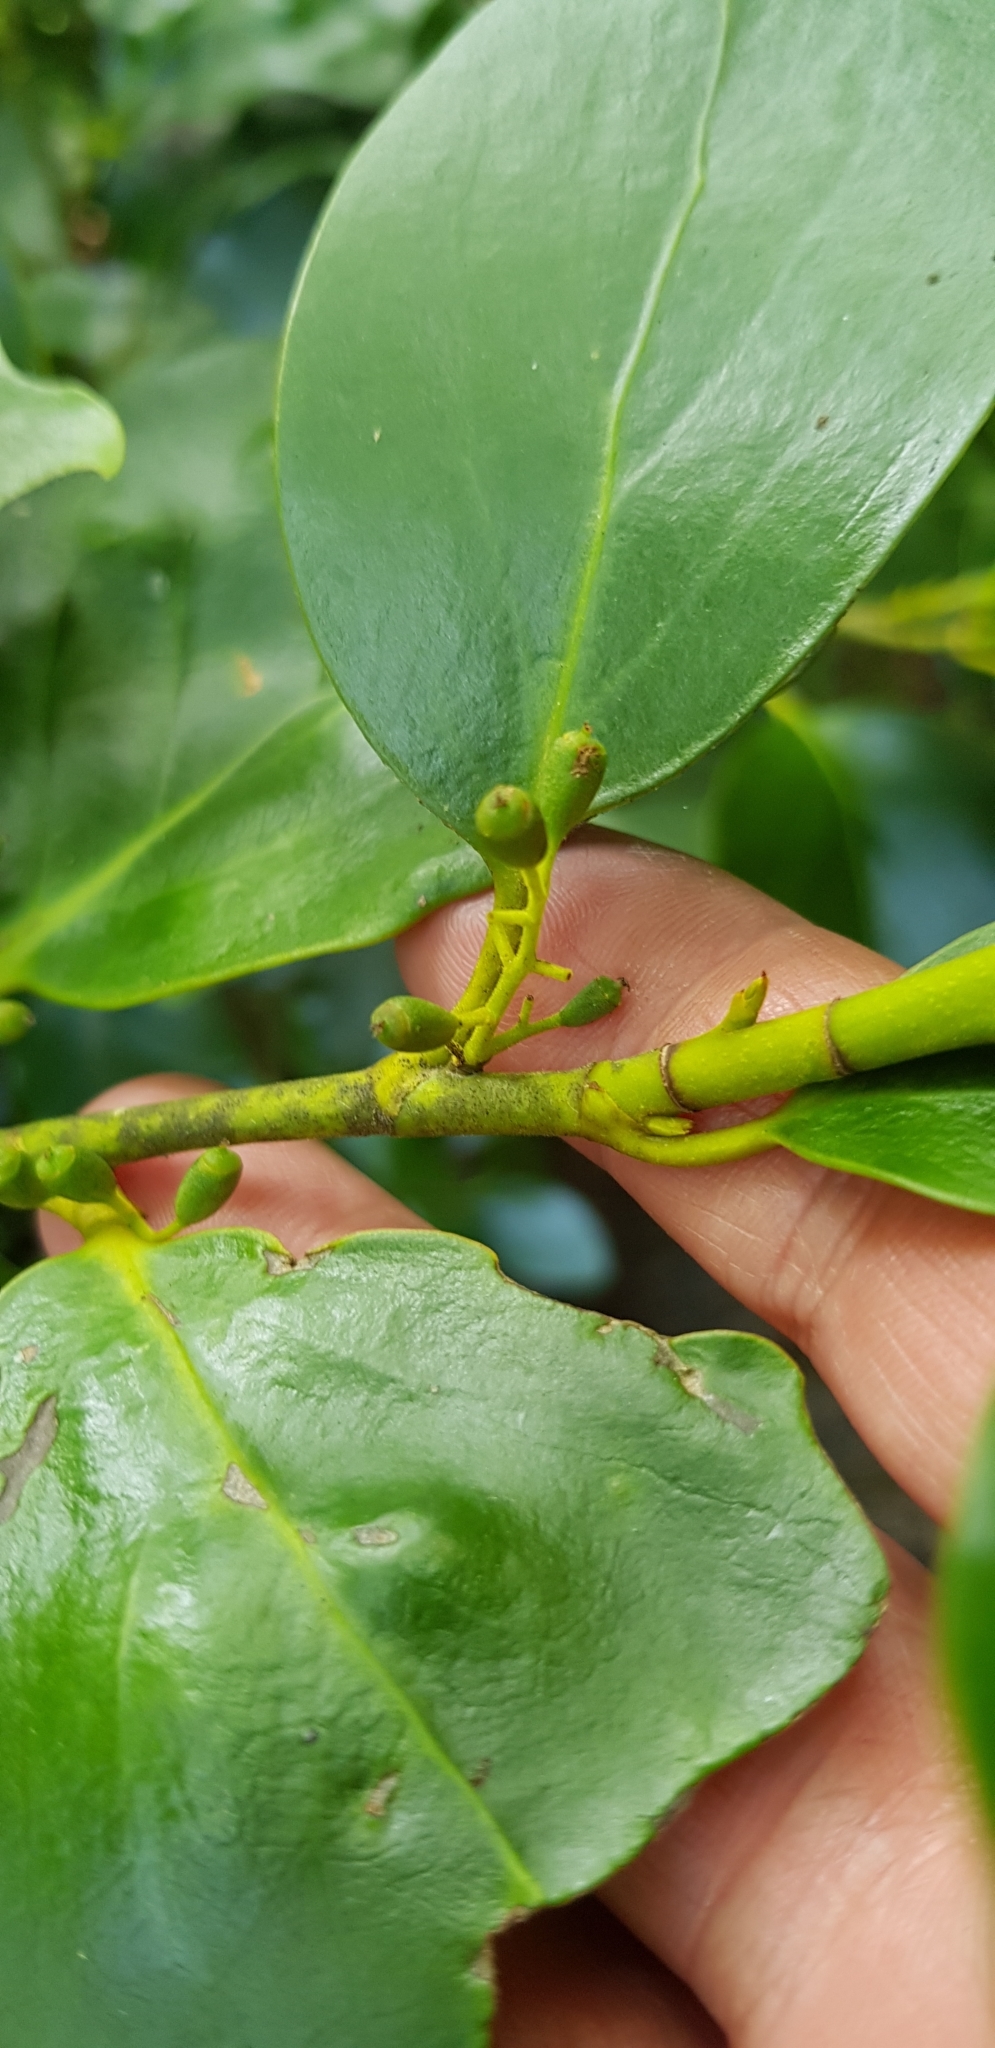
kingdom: Plantae
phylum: Tracheophyta
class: Magnoliopsida
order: Apiales
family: Griseliniaceae
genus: Griselinia
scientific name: Griselinia littoralis
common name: New zealand broadleaf
